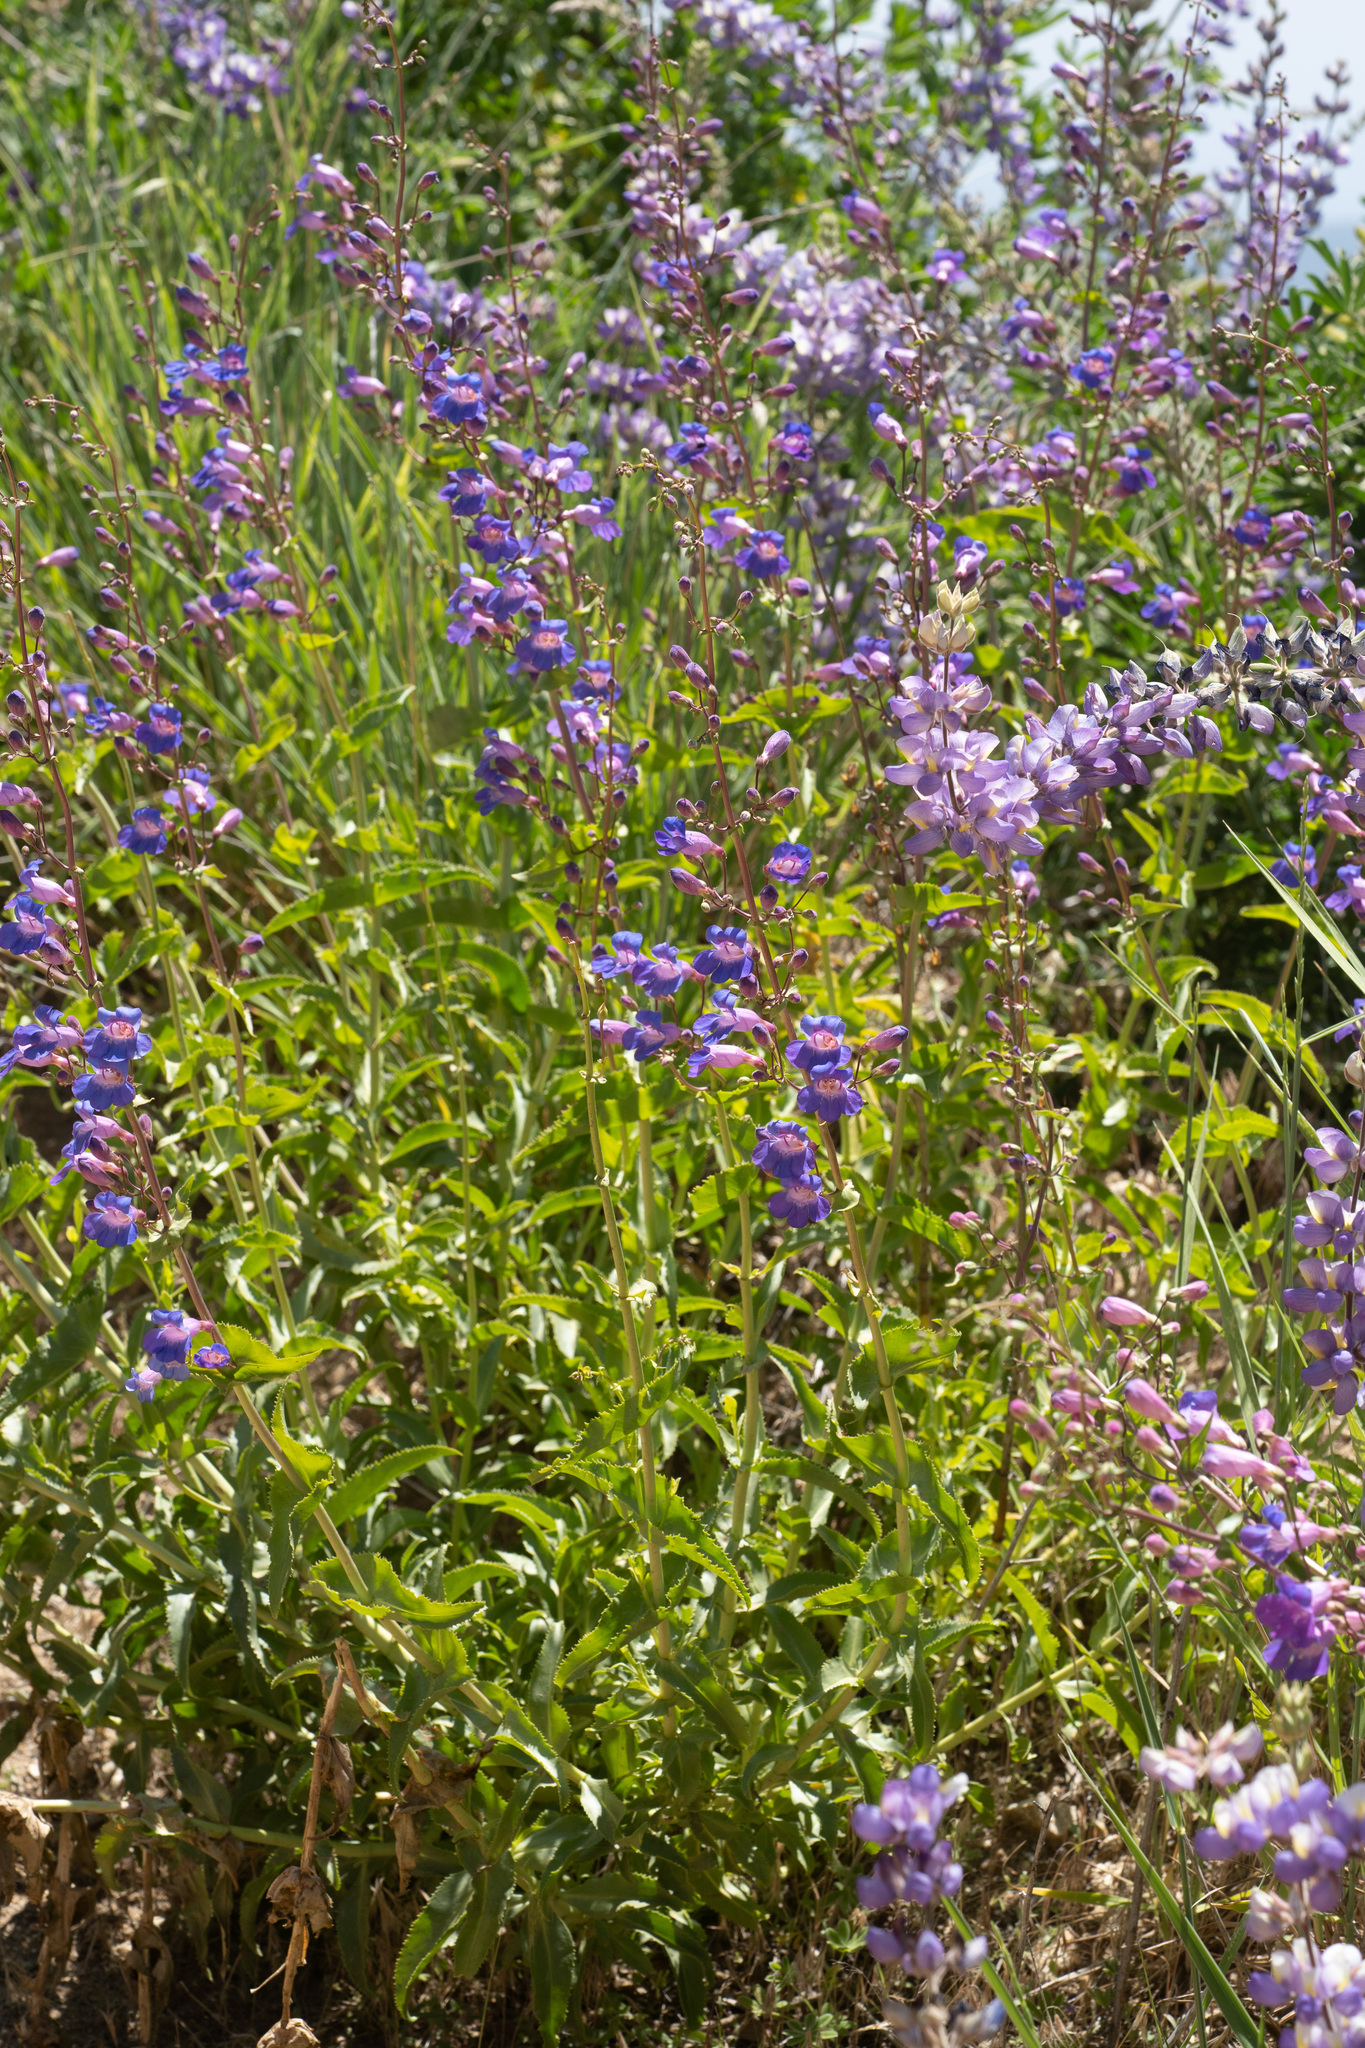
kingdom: Plantae
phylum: Tracheophyta
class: Magnoliopsida
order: Lamiales
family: Plantaginaceae
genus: Penstemon
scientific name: Penstemon spectabilis
